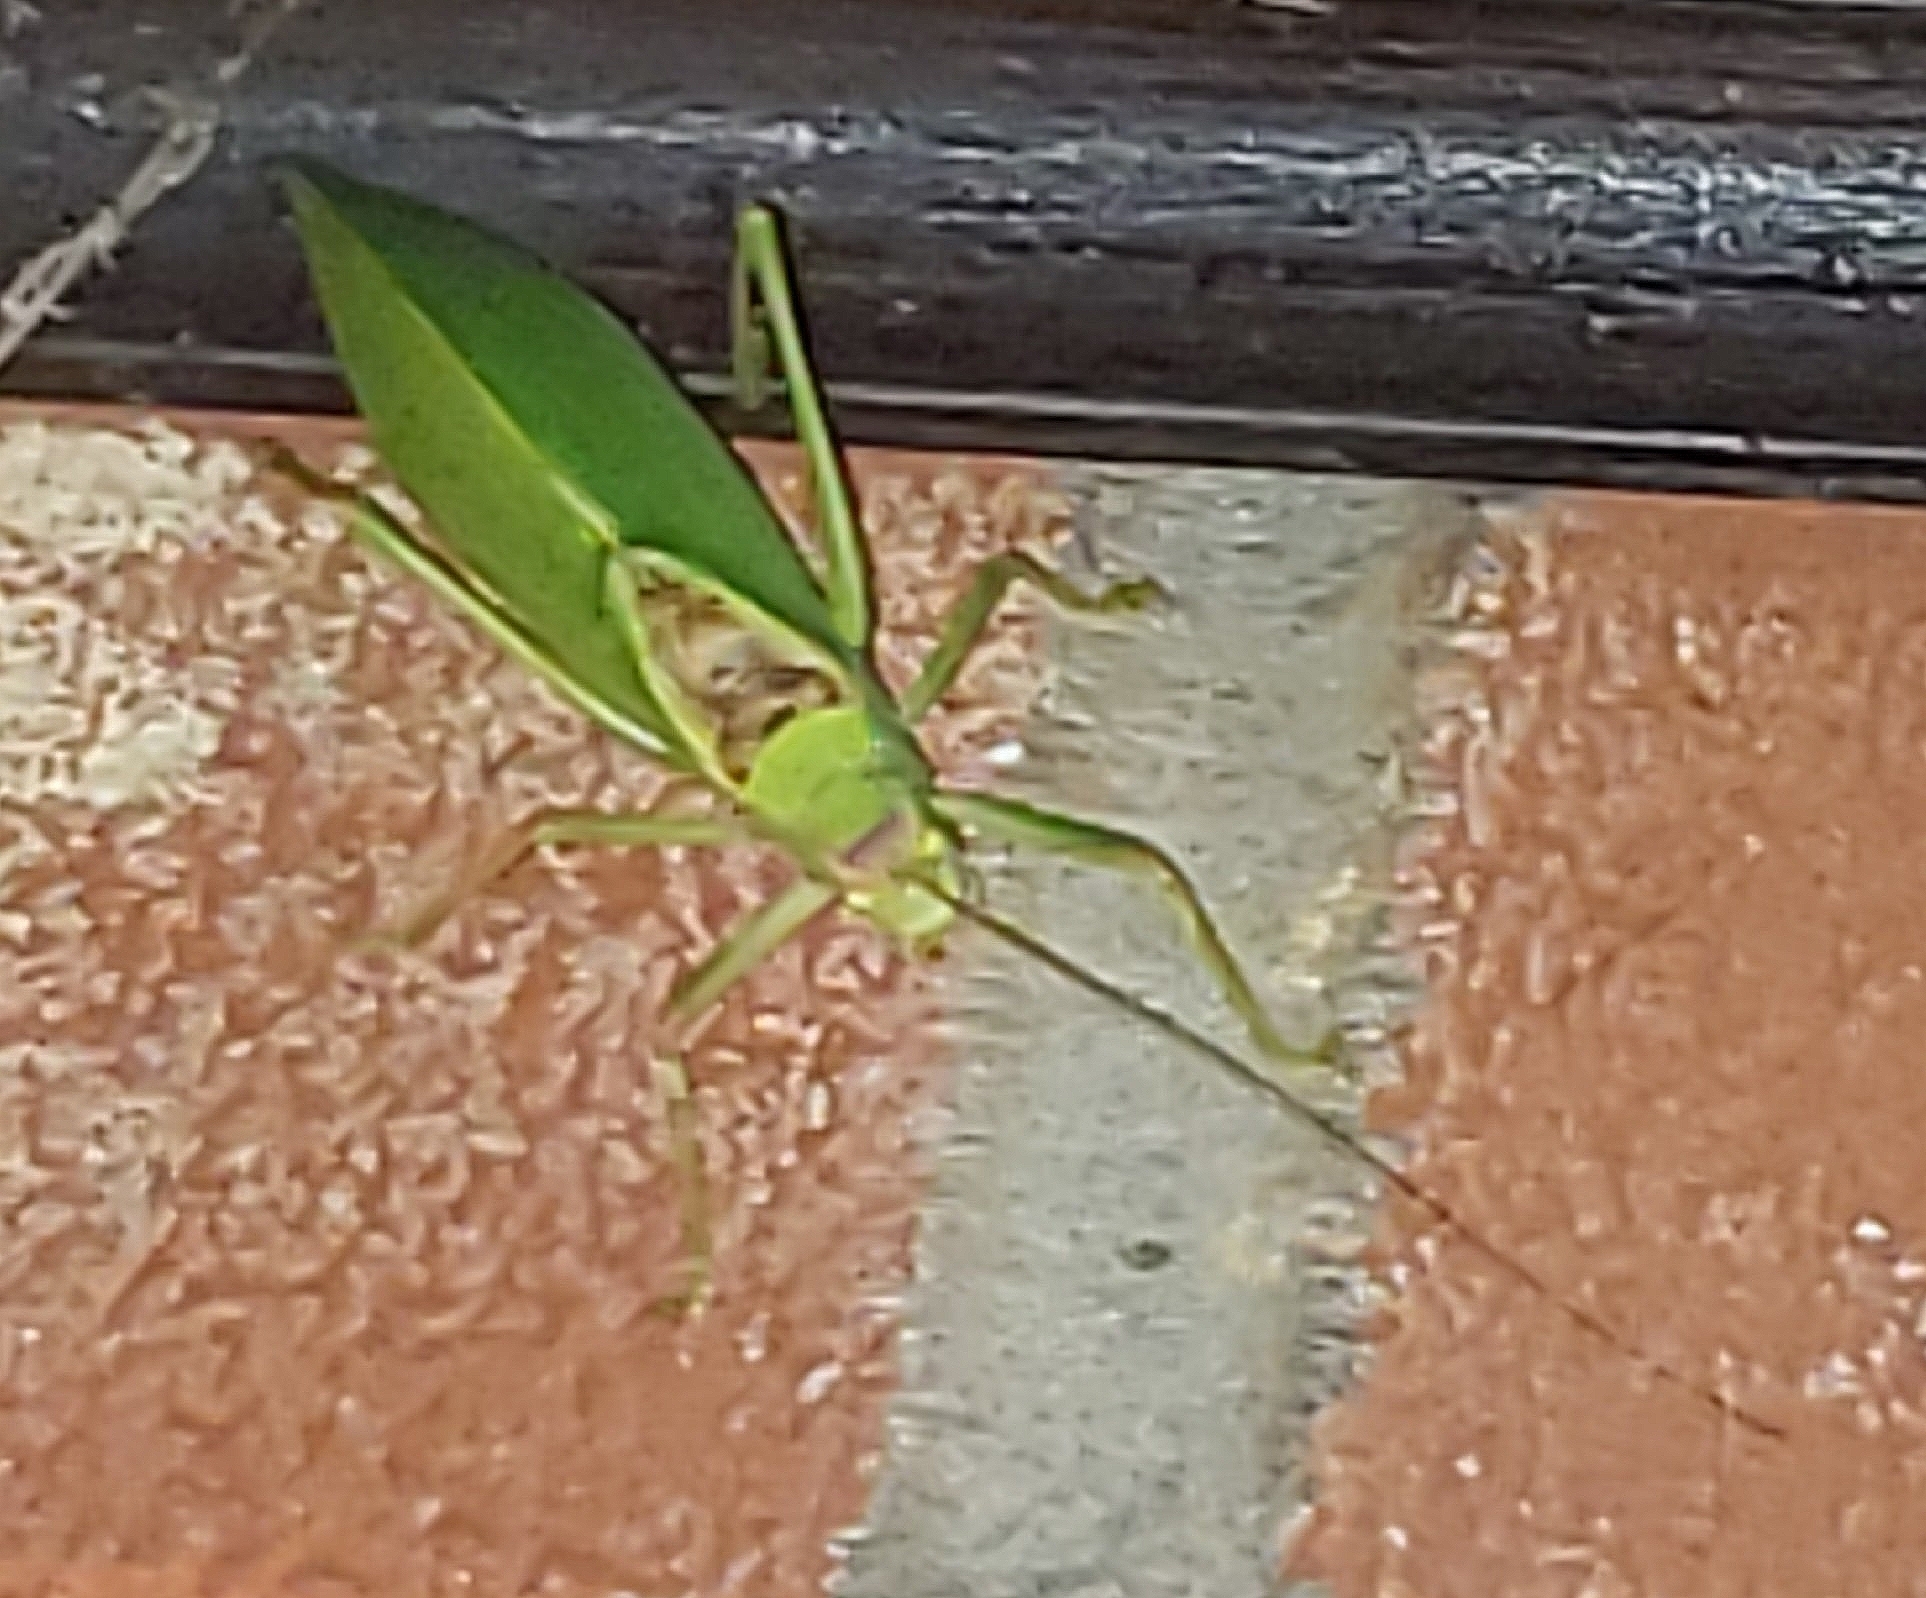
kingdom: Animalia
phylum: Arthropoda
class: Insecta
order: Orthoptera
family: Tettigoniidae
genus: Pterophylla
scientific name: Pterophylla camellifolia
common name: Common true katydid
